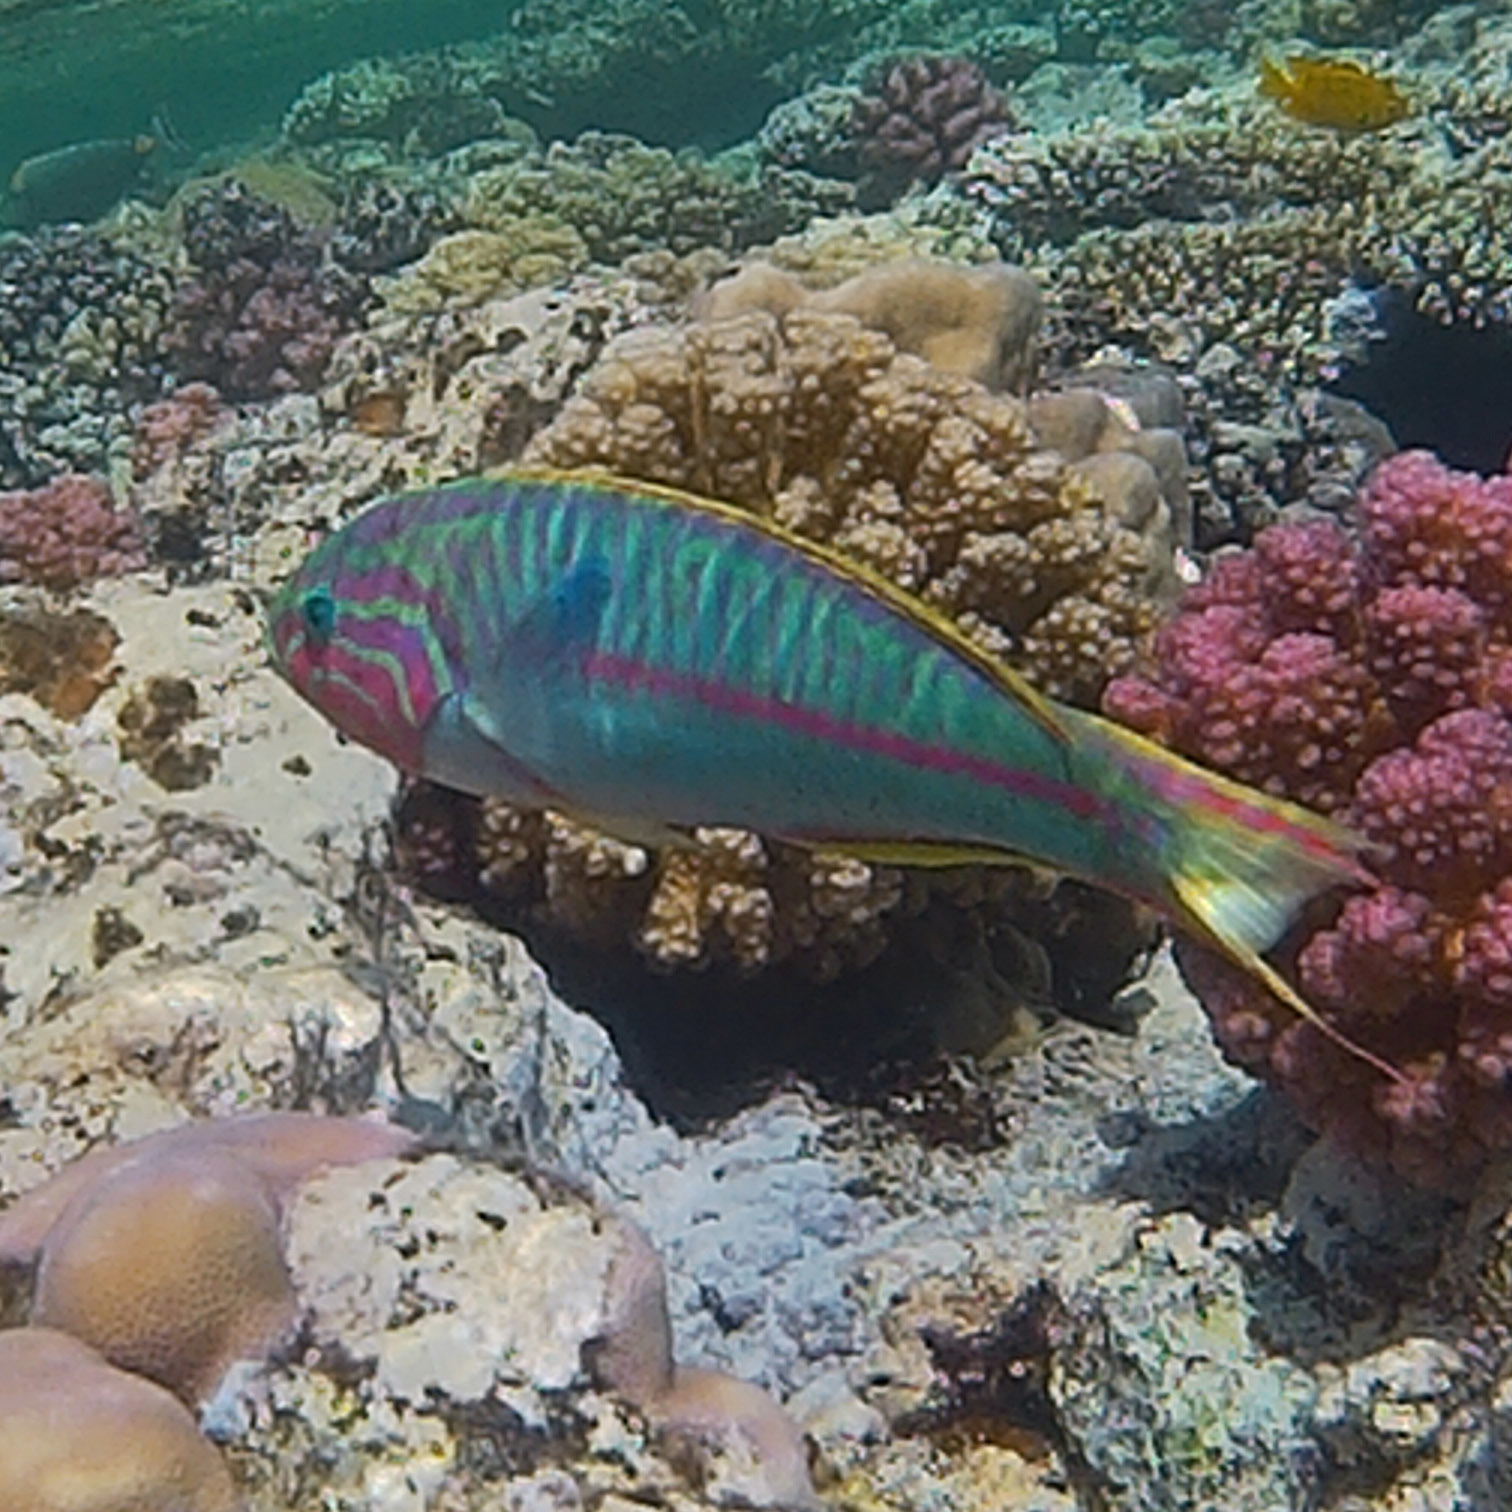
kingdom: Animalia
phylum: Chordata
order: Perciformes
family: Labridae
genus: Thalassoma
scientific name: Thalassoma rueppellii
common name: Klunzinger's wrasse
